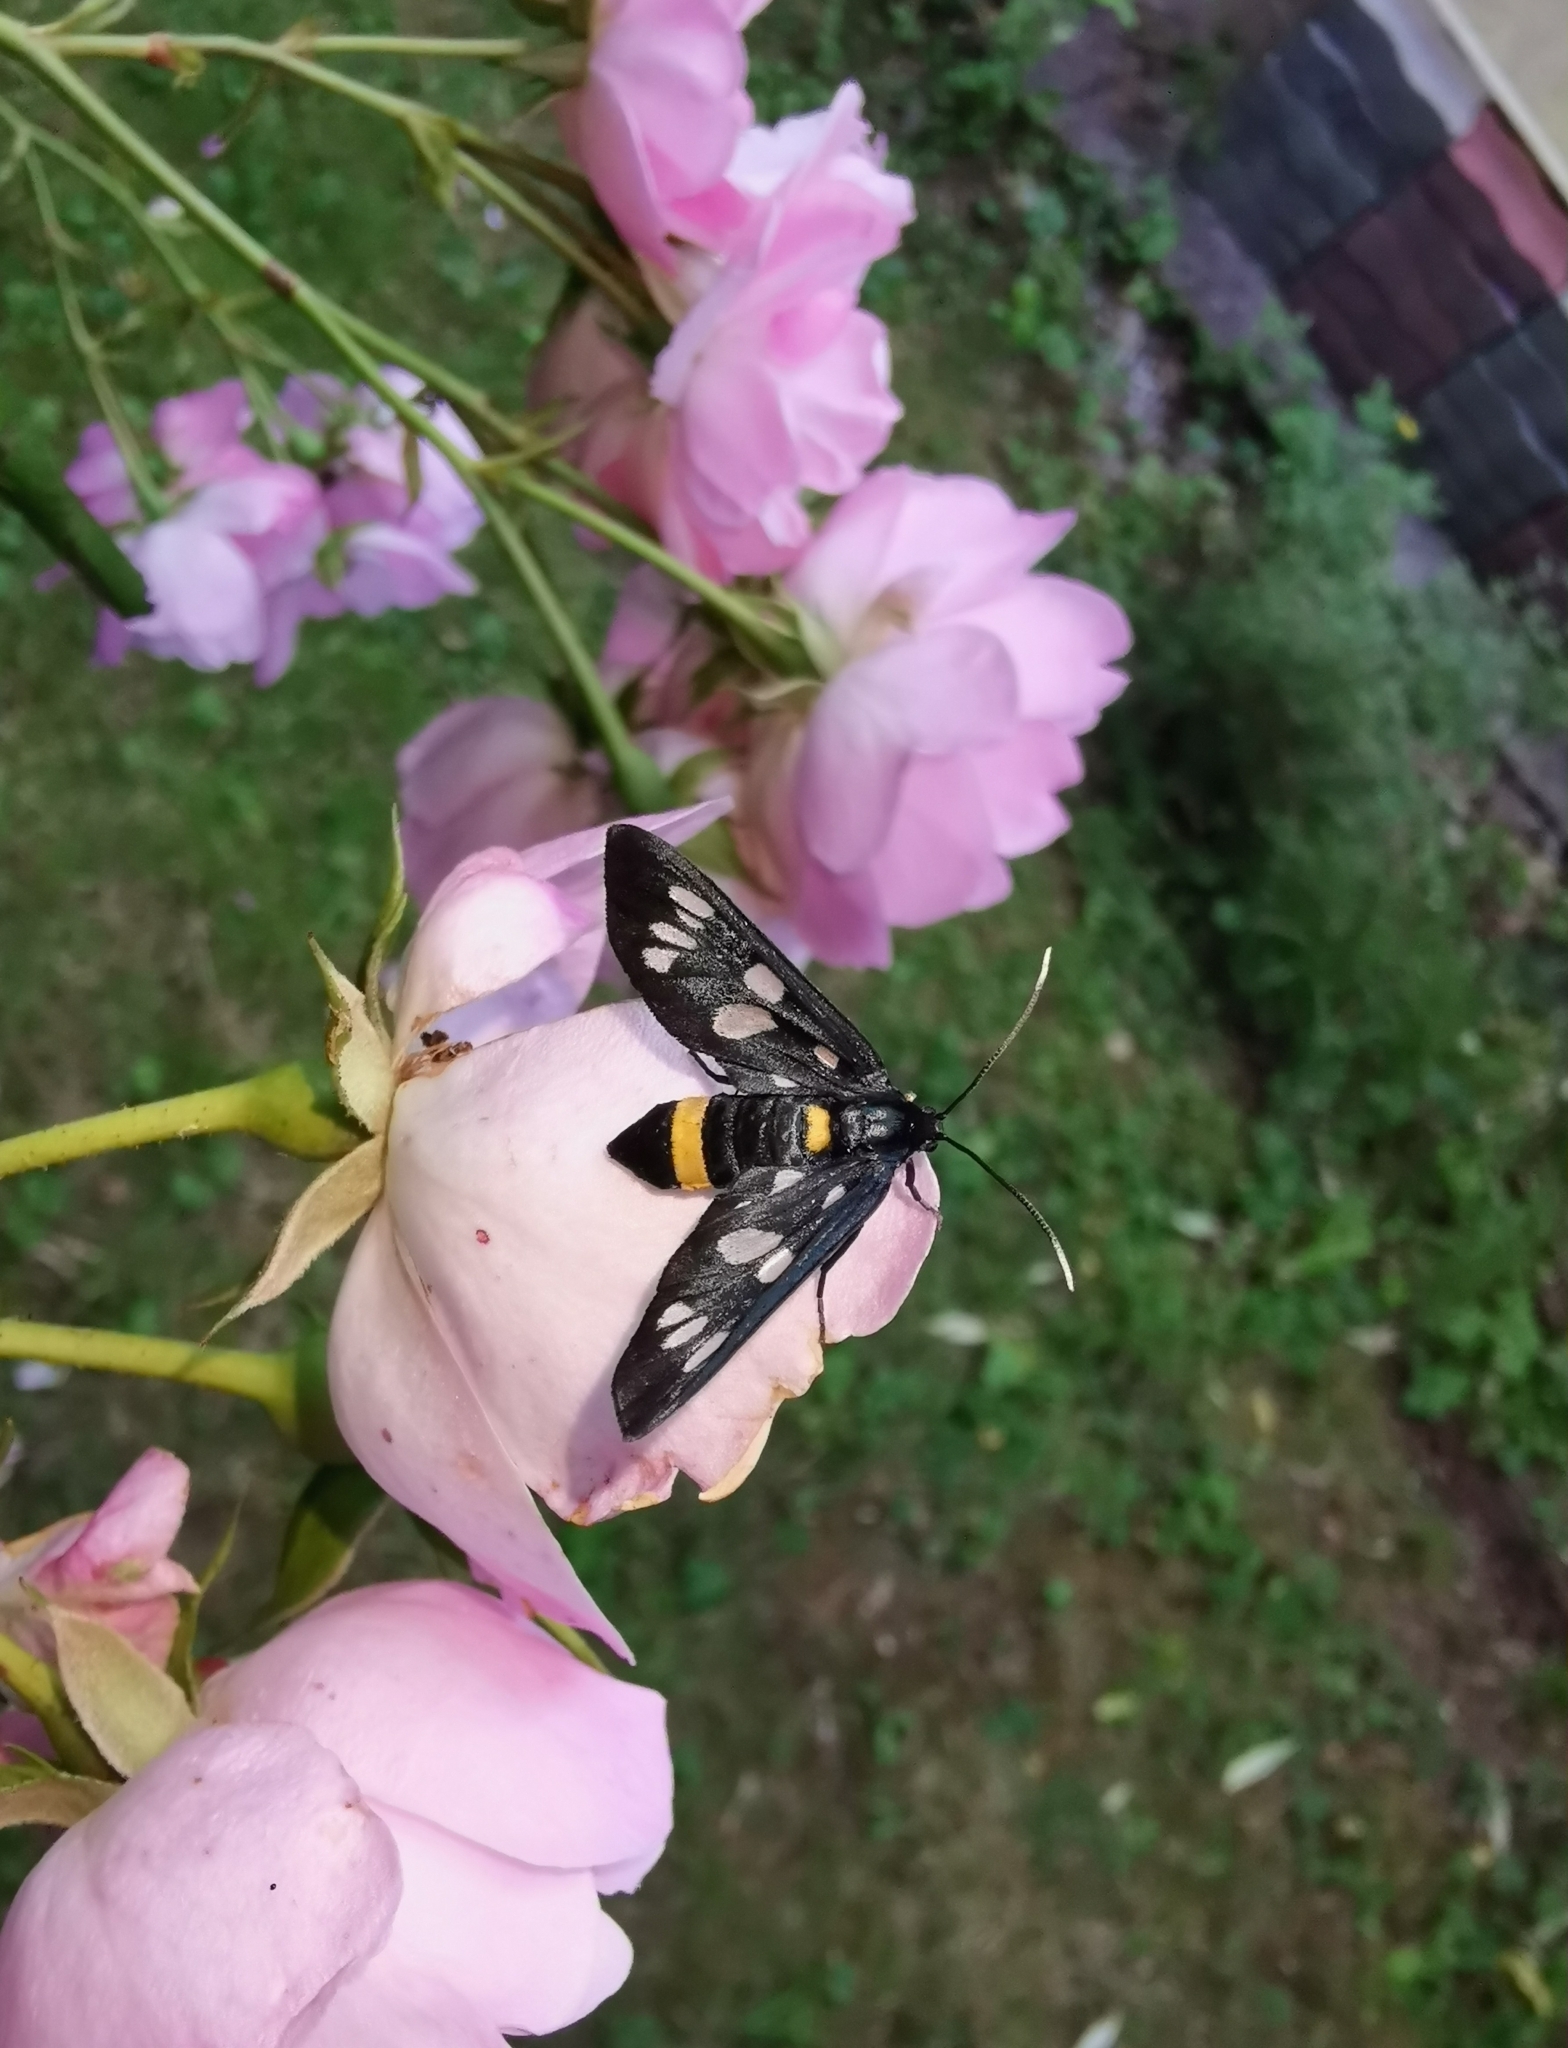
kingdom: Animalia
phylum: Arthropoda
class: Insecta
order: Lepidoptera
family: Erebidae
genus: Amata
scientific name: Amata phegea
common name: Nine-spotted
